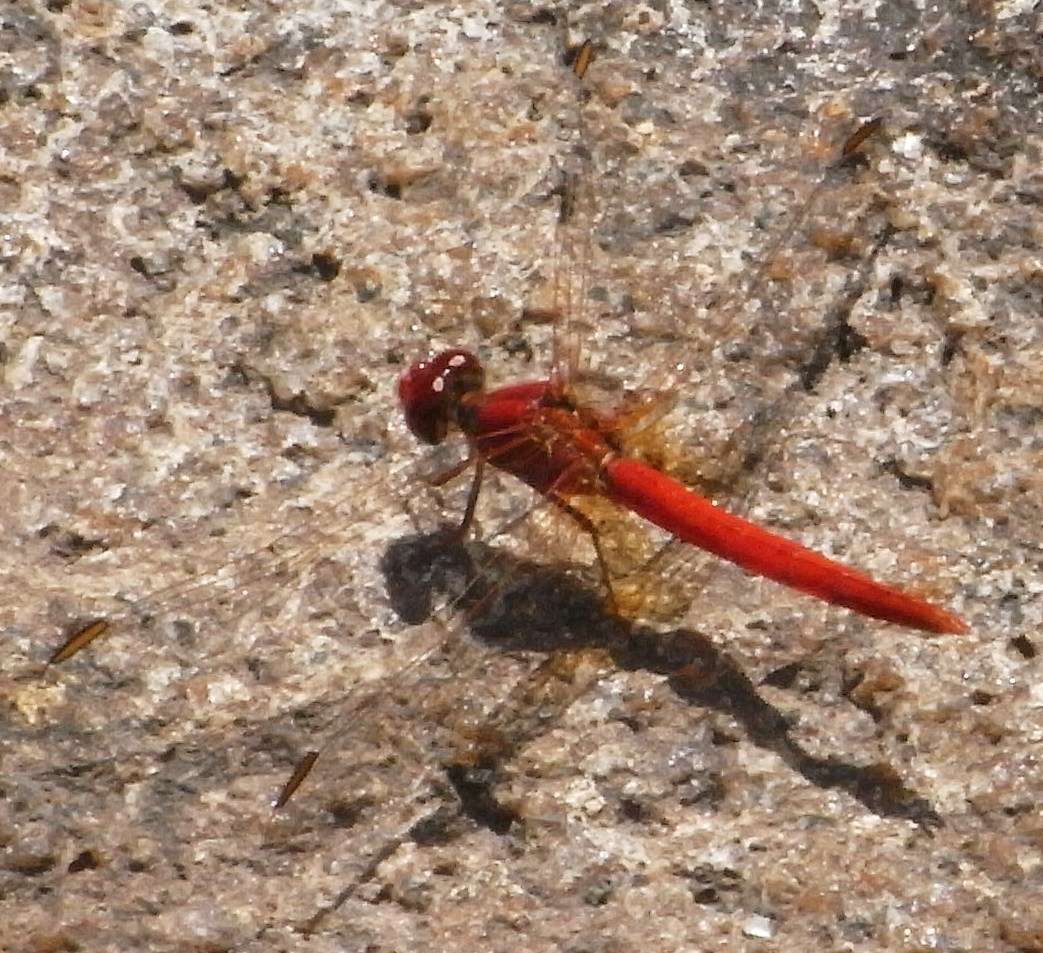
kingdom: Animalia
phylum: Arthropoda
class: Insecta
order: Odonata
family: Libellulidae
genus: Diplacodes
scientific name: Diplacodes haematodes
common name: Scarlet percher
